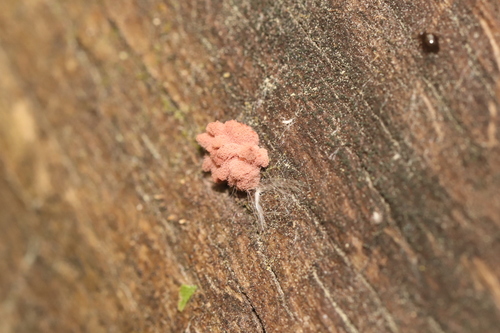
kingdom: Protozoa
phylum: Mycetozoa
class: Myxomycetes
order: Trichiales
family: Arcyriaceae
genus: Arcyria
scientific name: Arcyria incarnata
